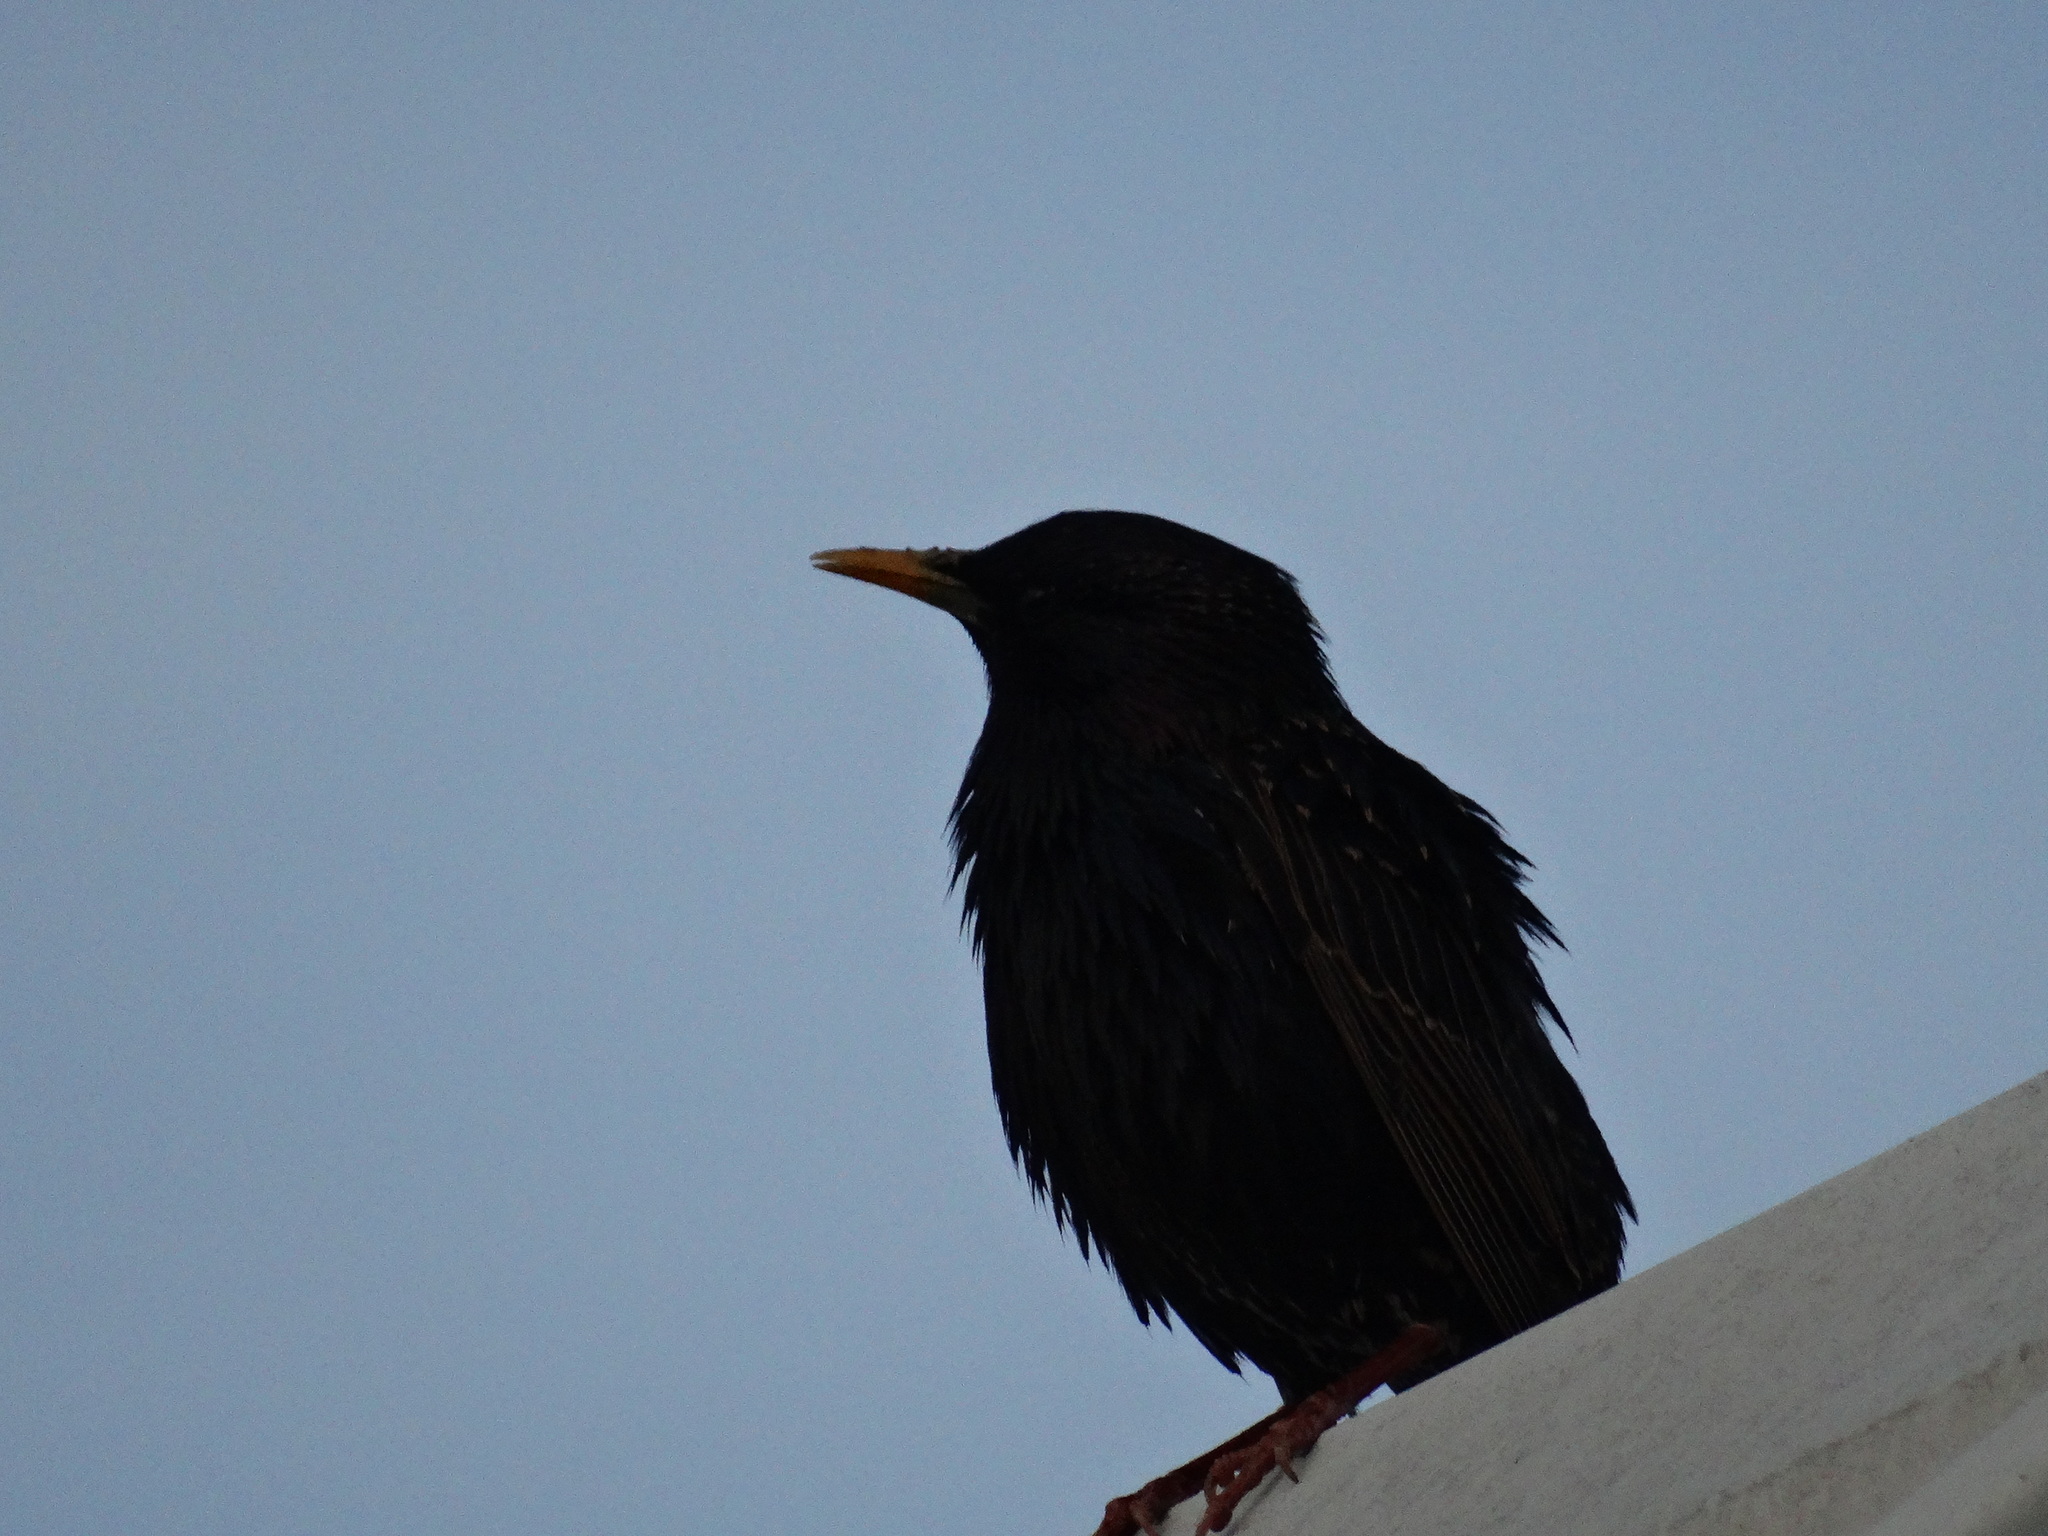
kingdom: Animalia
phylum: Chordata
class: Aves
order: Passeriformes
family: Sturnidae
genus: Sturnus
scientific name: Sturnus vulgaris
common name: Common starling
